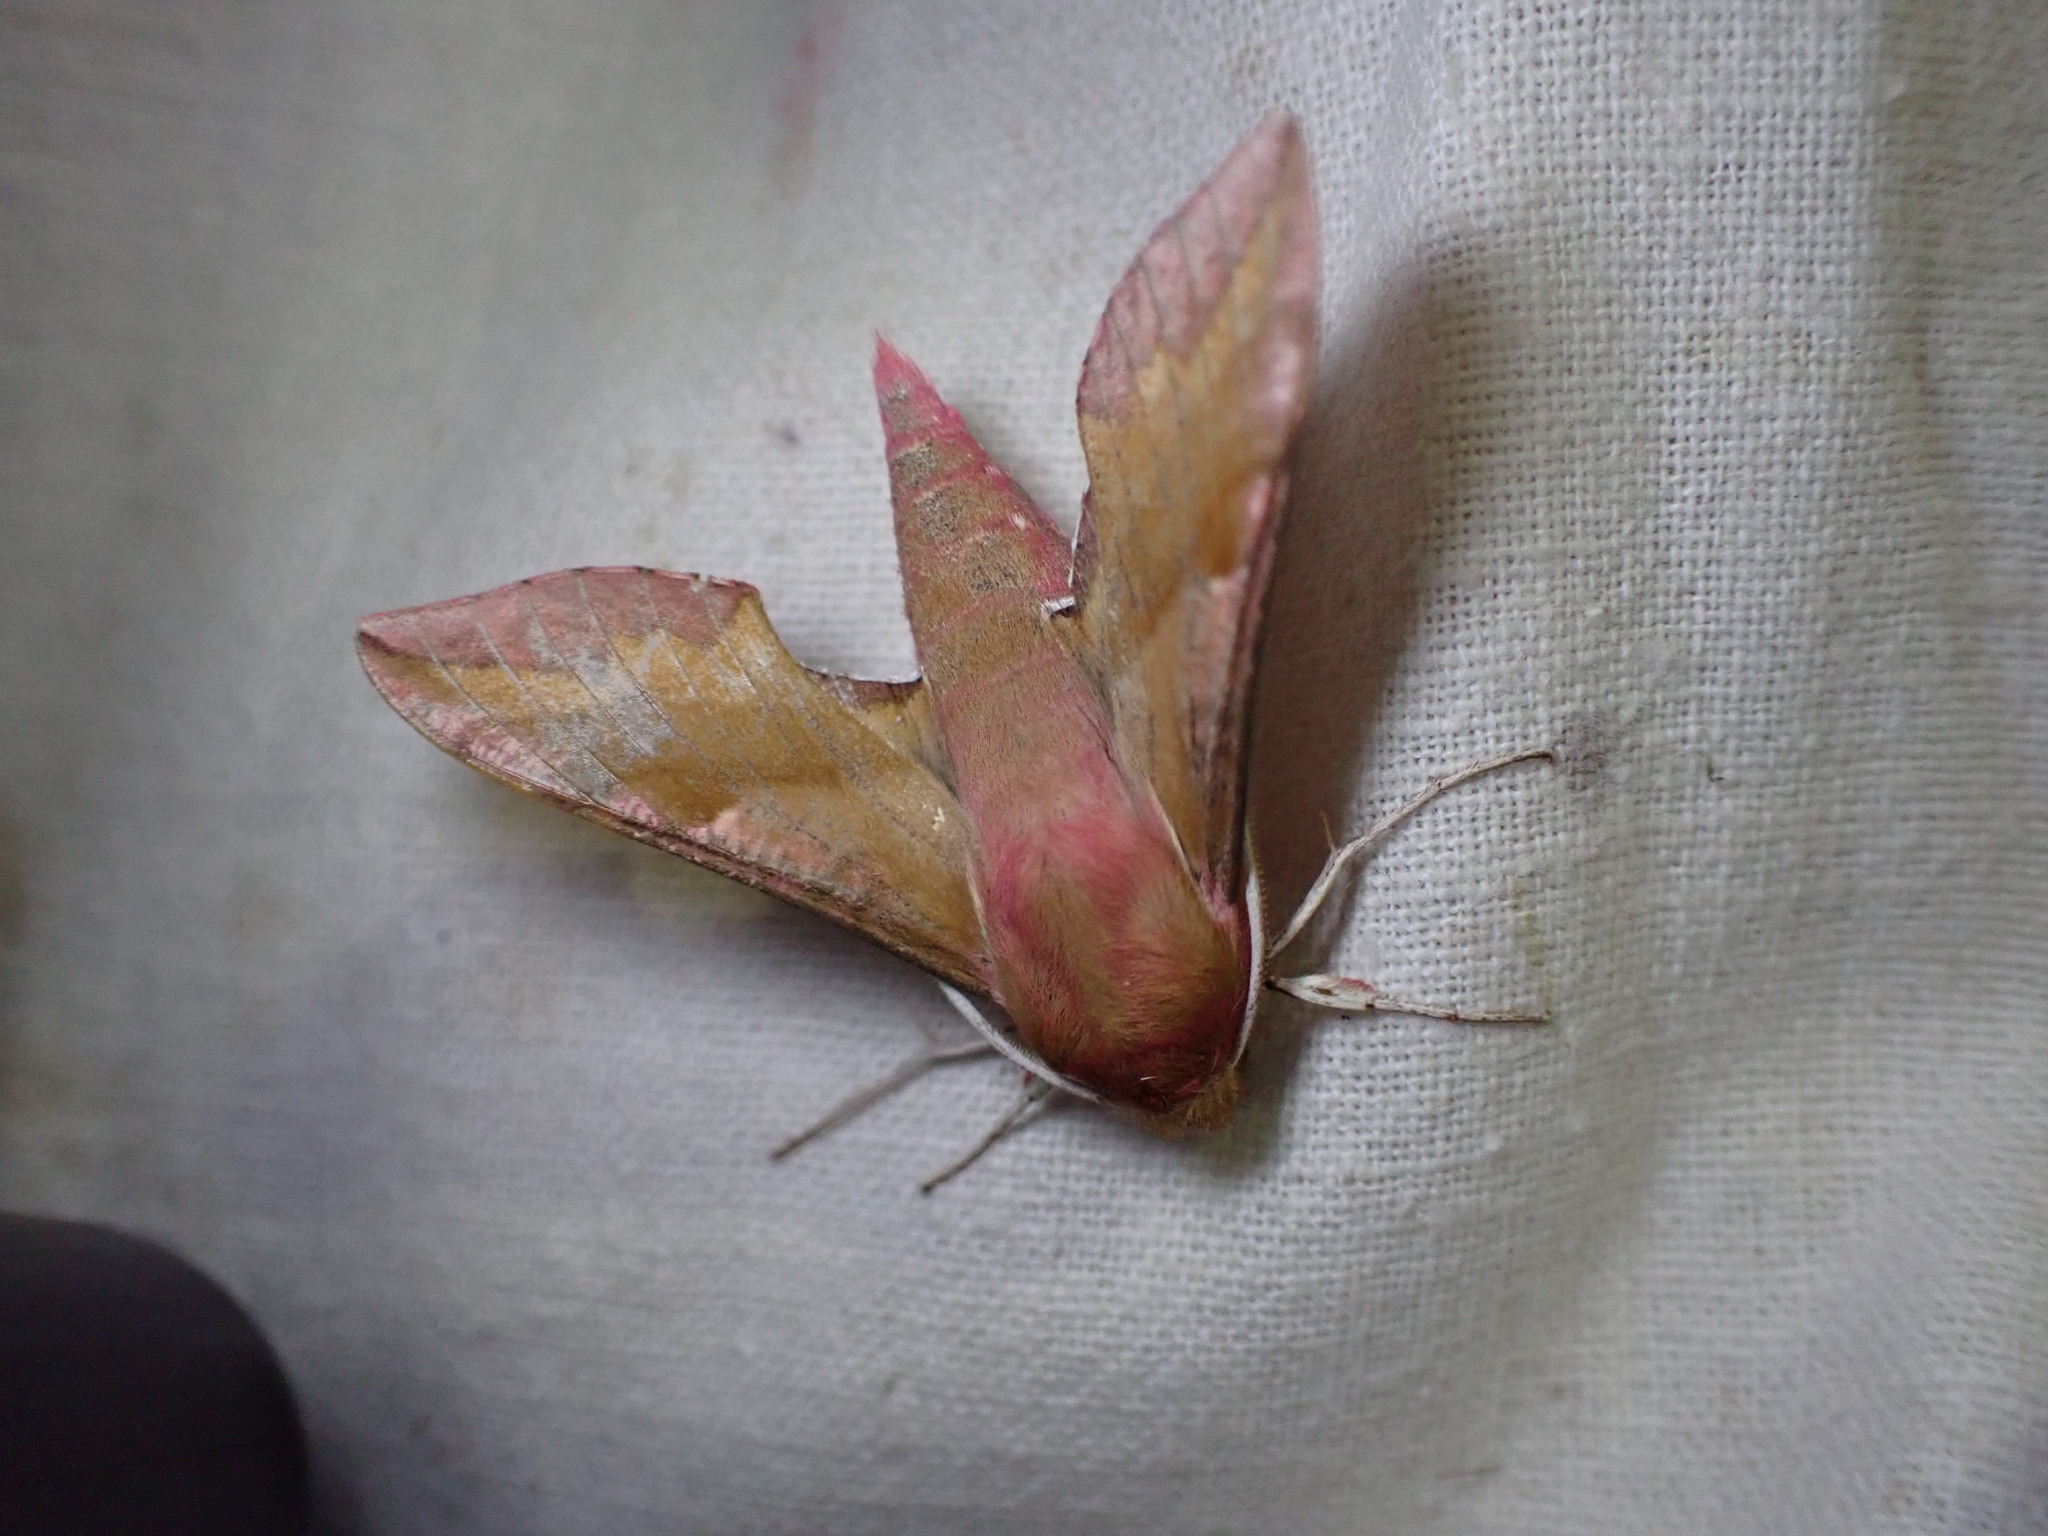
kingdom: Animalia
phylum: Arthropoda
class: Insecta
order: Lepidoptera
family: Sphingidae
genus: Deilephila
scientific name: Deilephila porcellus
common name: Small elephant hawk-moth
